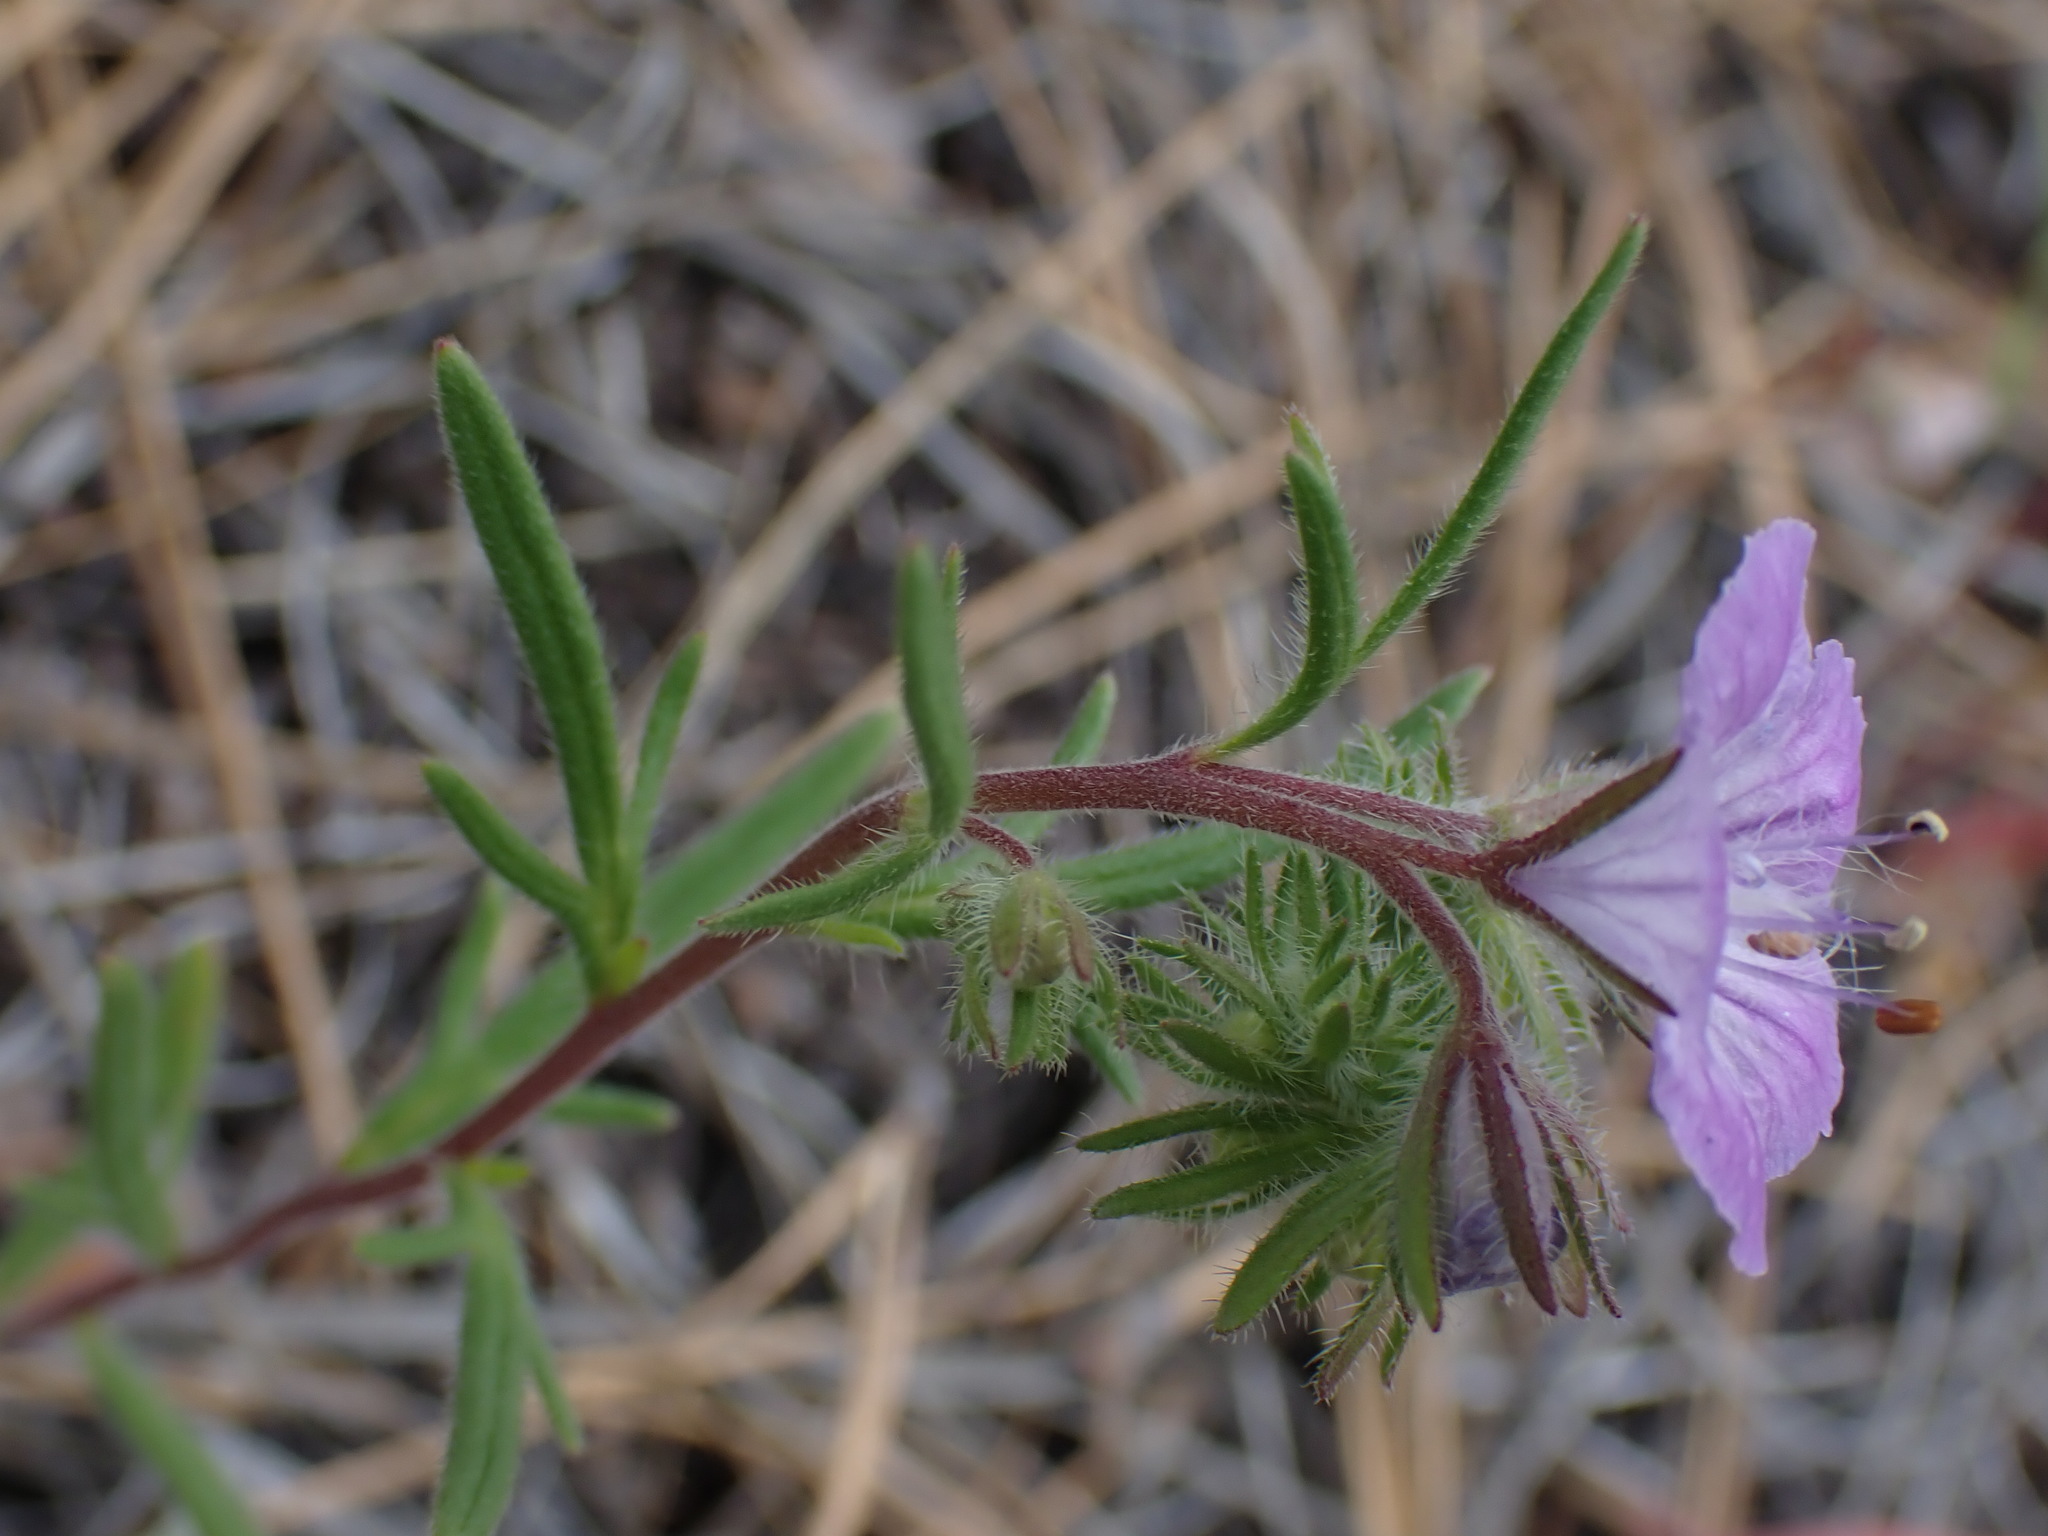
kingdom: Plantae
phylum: Tracheophyta
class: Magnoliopsida
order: Boraginales
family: Hydrophyllaceae
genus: Phacelia
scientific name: Phacelia linearis
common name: Linear-leaved phacelia
